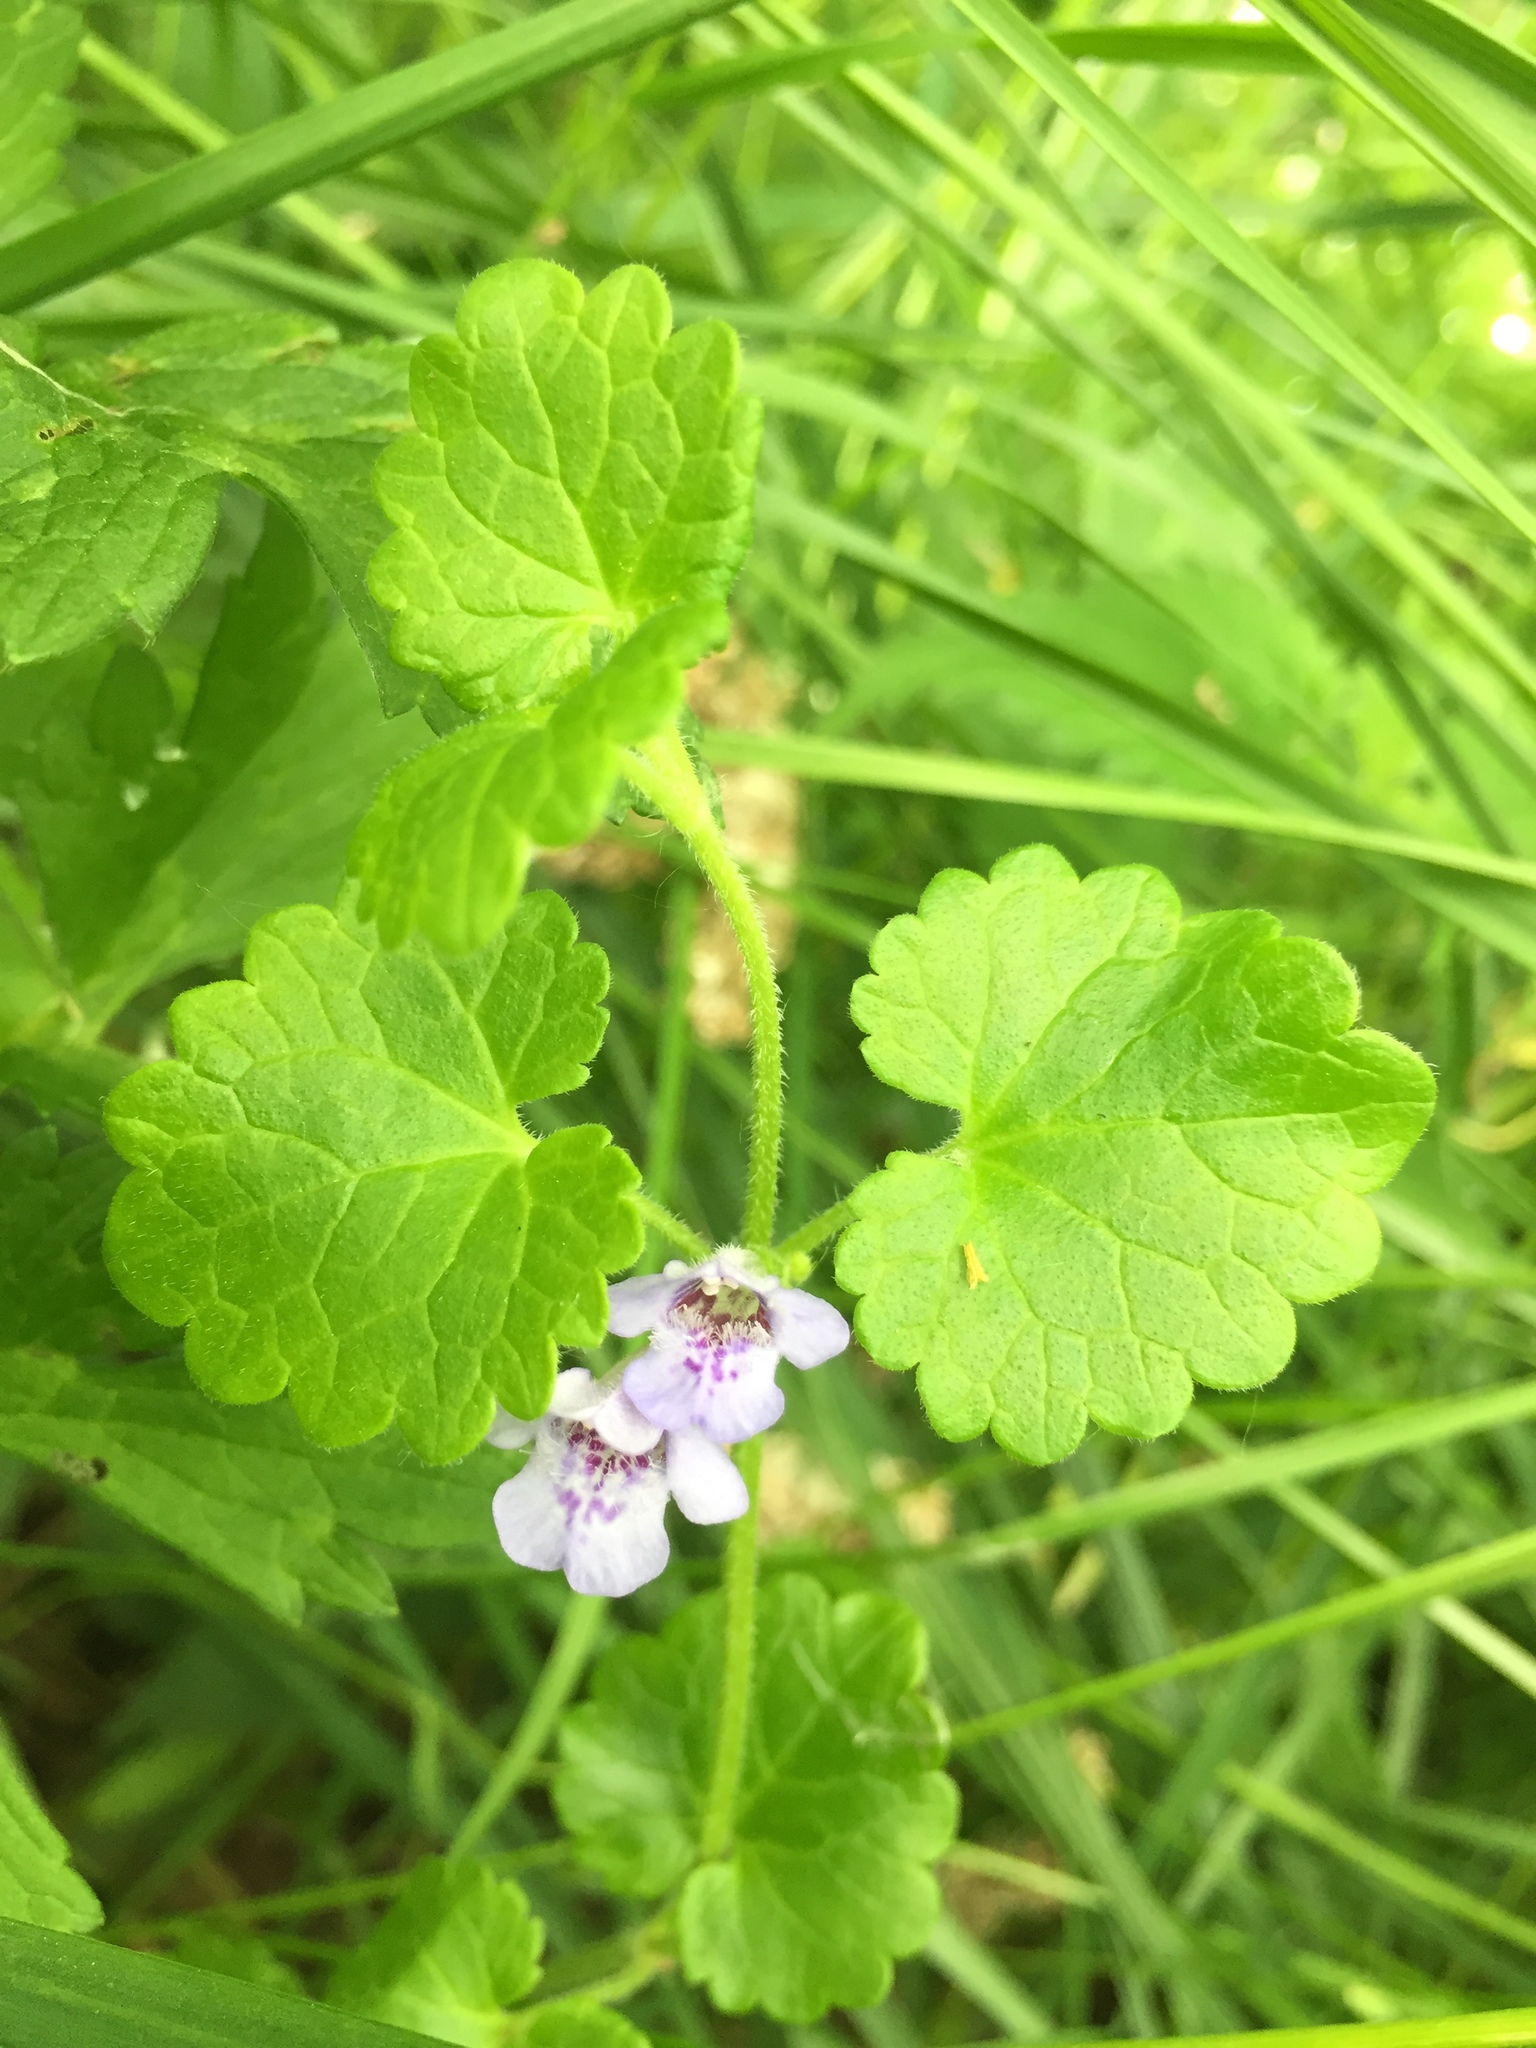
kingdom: Plantae
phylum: Tracheophyta
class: Magnoliopsida
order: Lamiales
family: Lamiaceae
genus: Glechoma
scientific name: Glechoma hederacea
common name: Ground ivy
